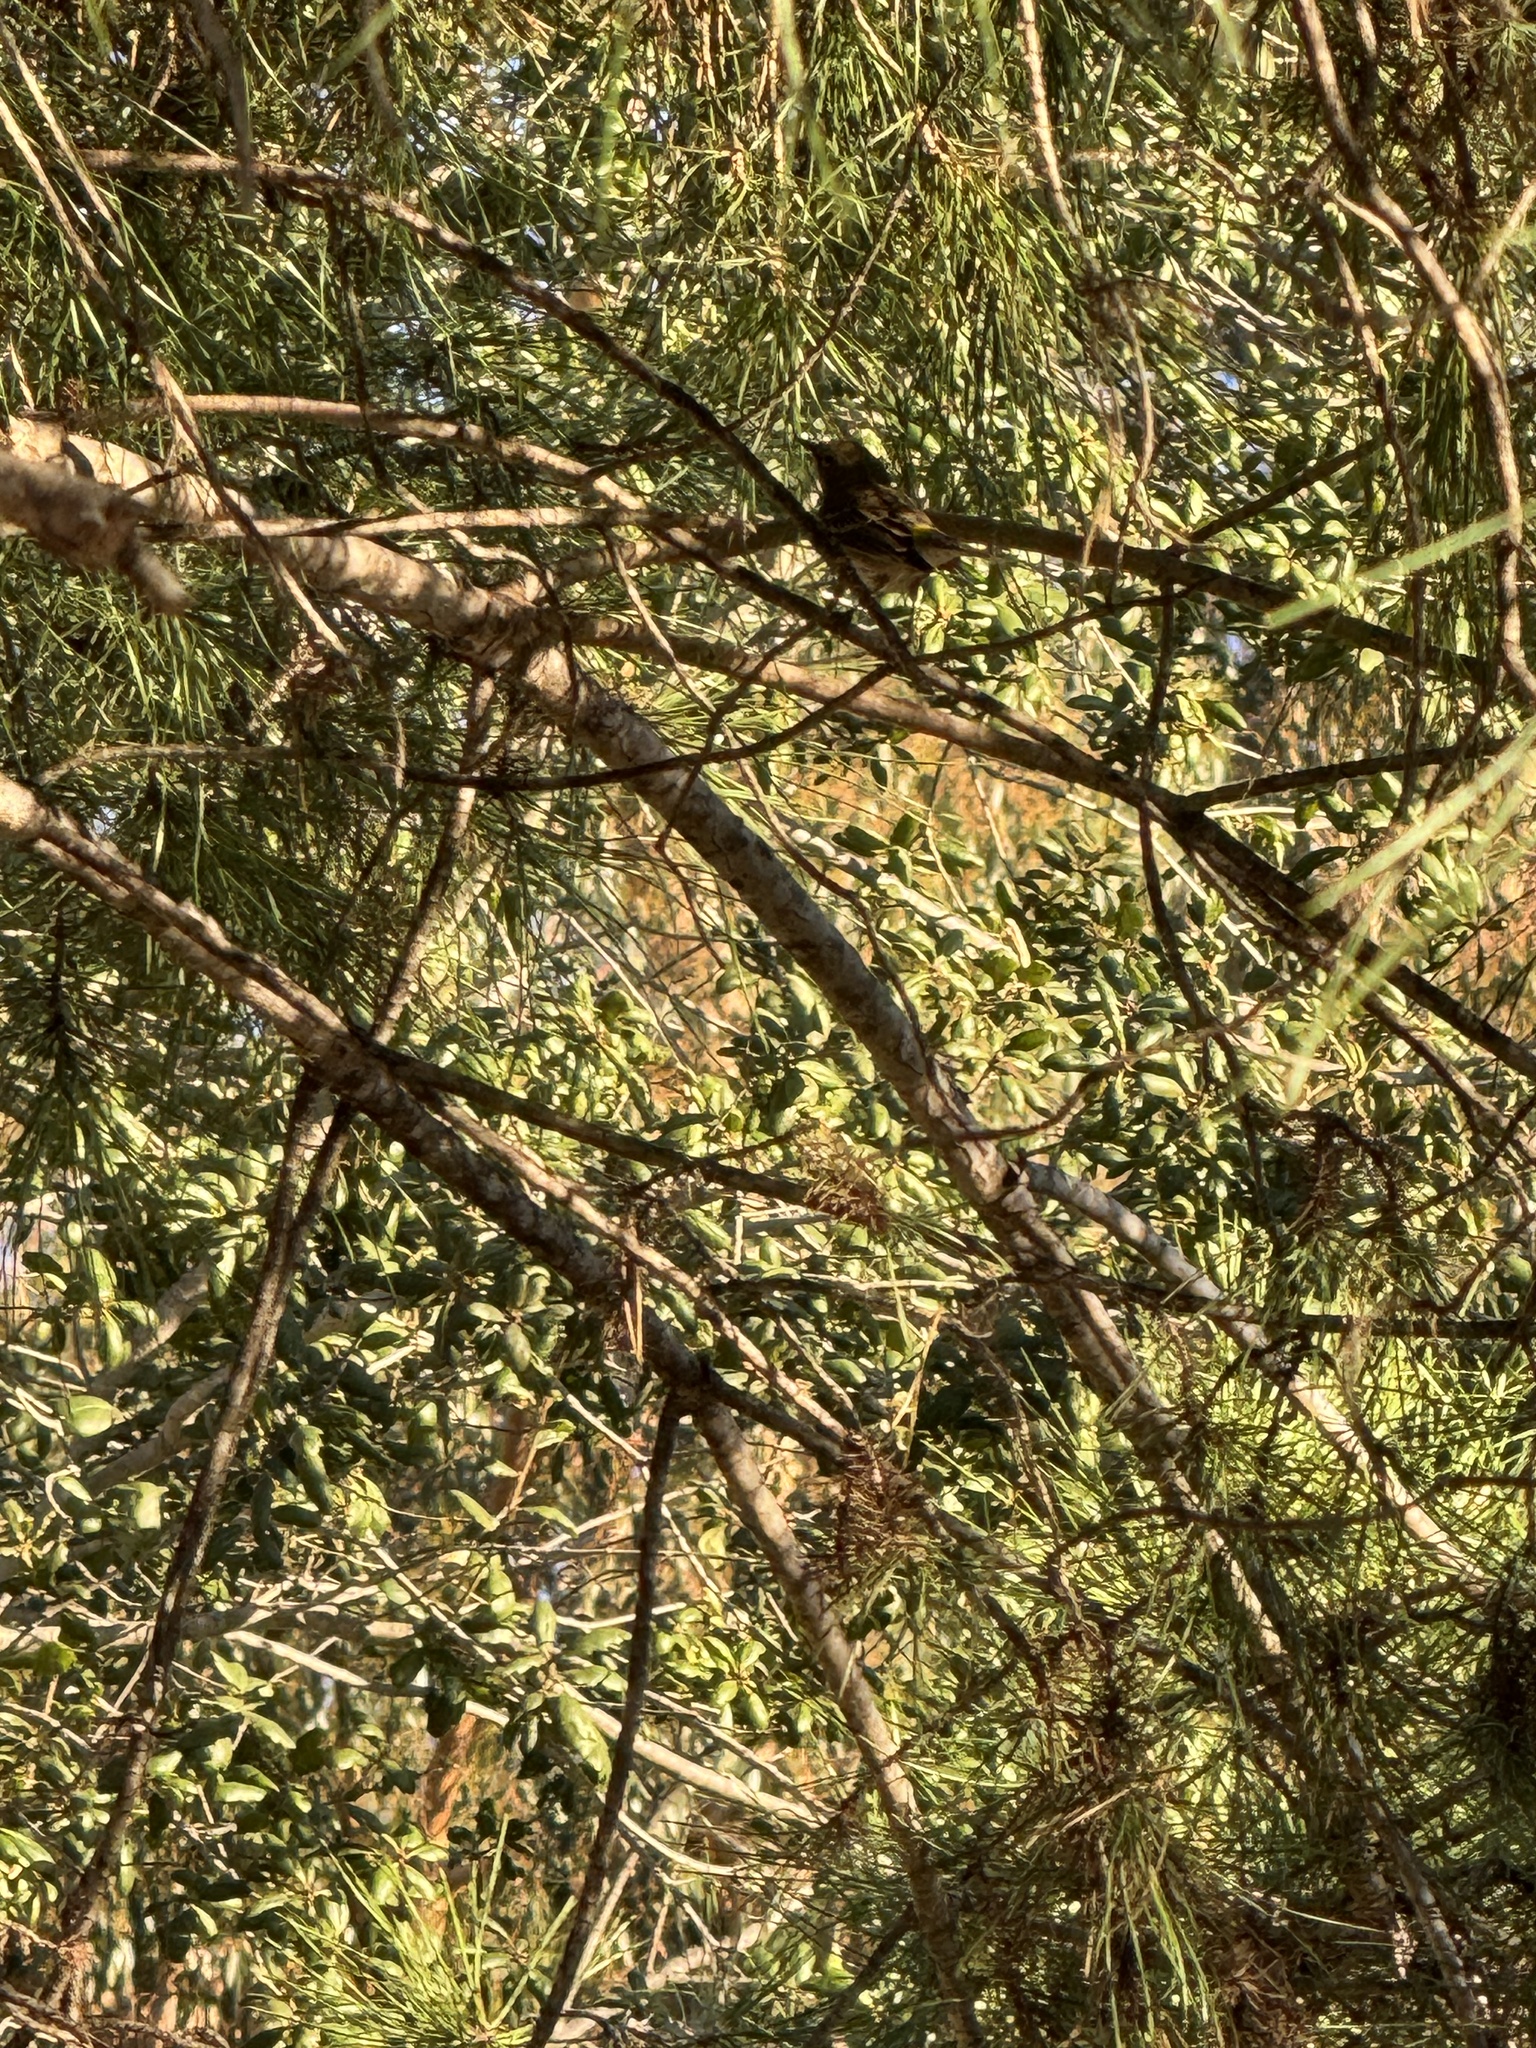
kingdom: Animalia
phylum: Chordata
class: Aves
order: Passeriformes
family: Parulidae
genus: Setophaga
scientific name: Setophaga coronata
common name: Myrtle warbler
